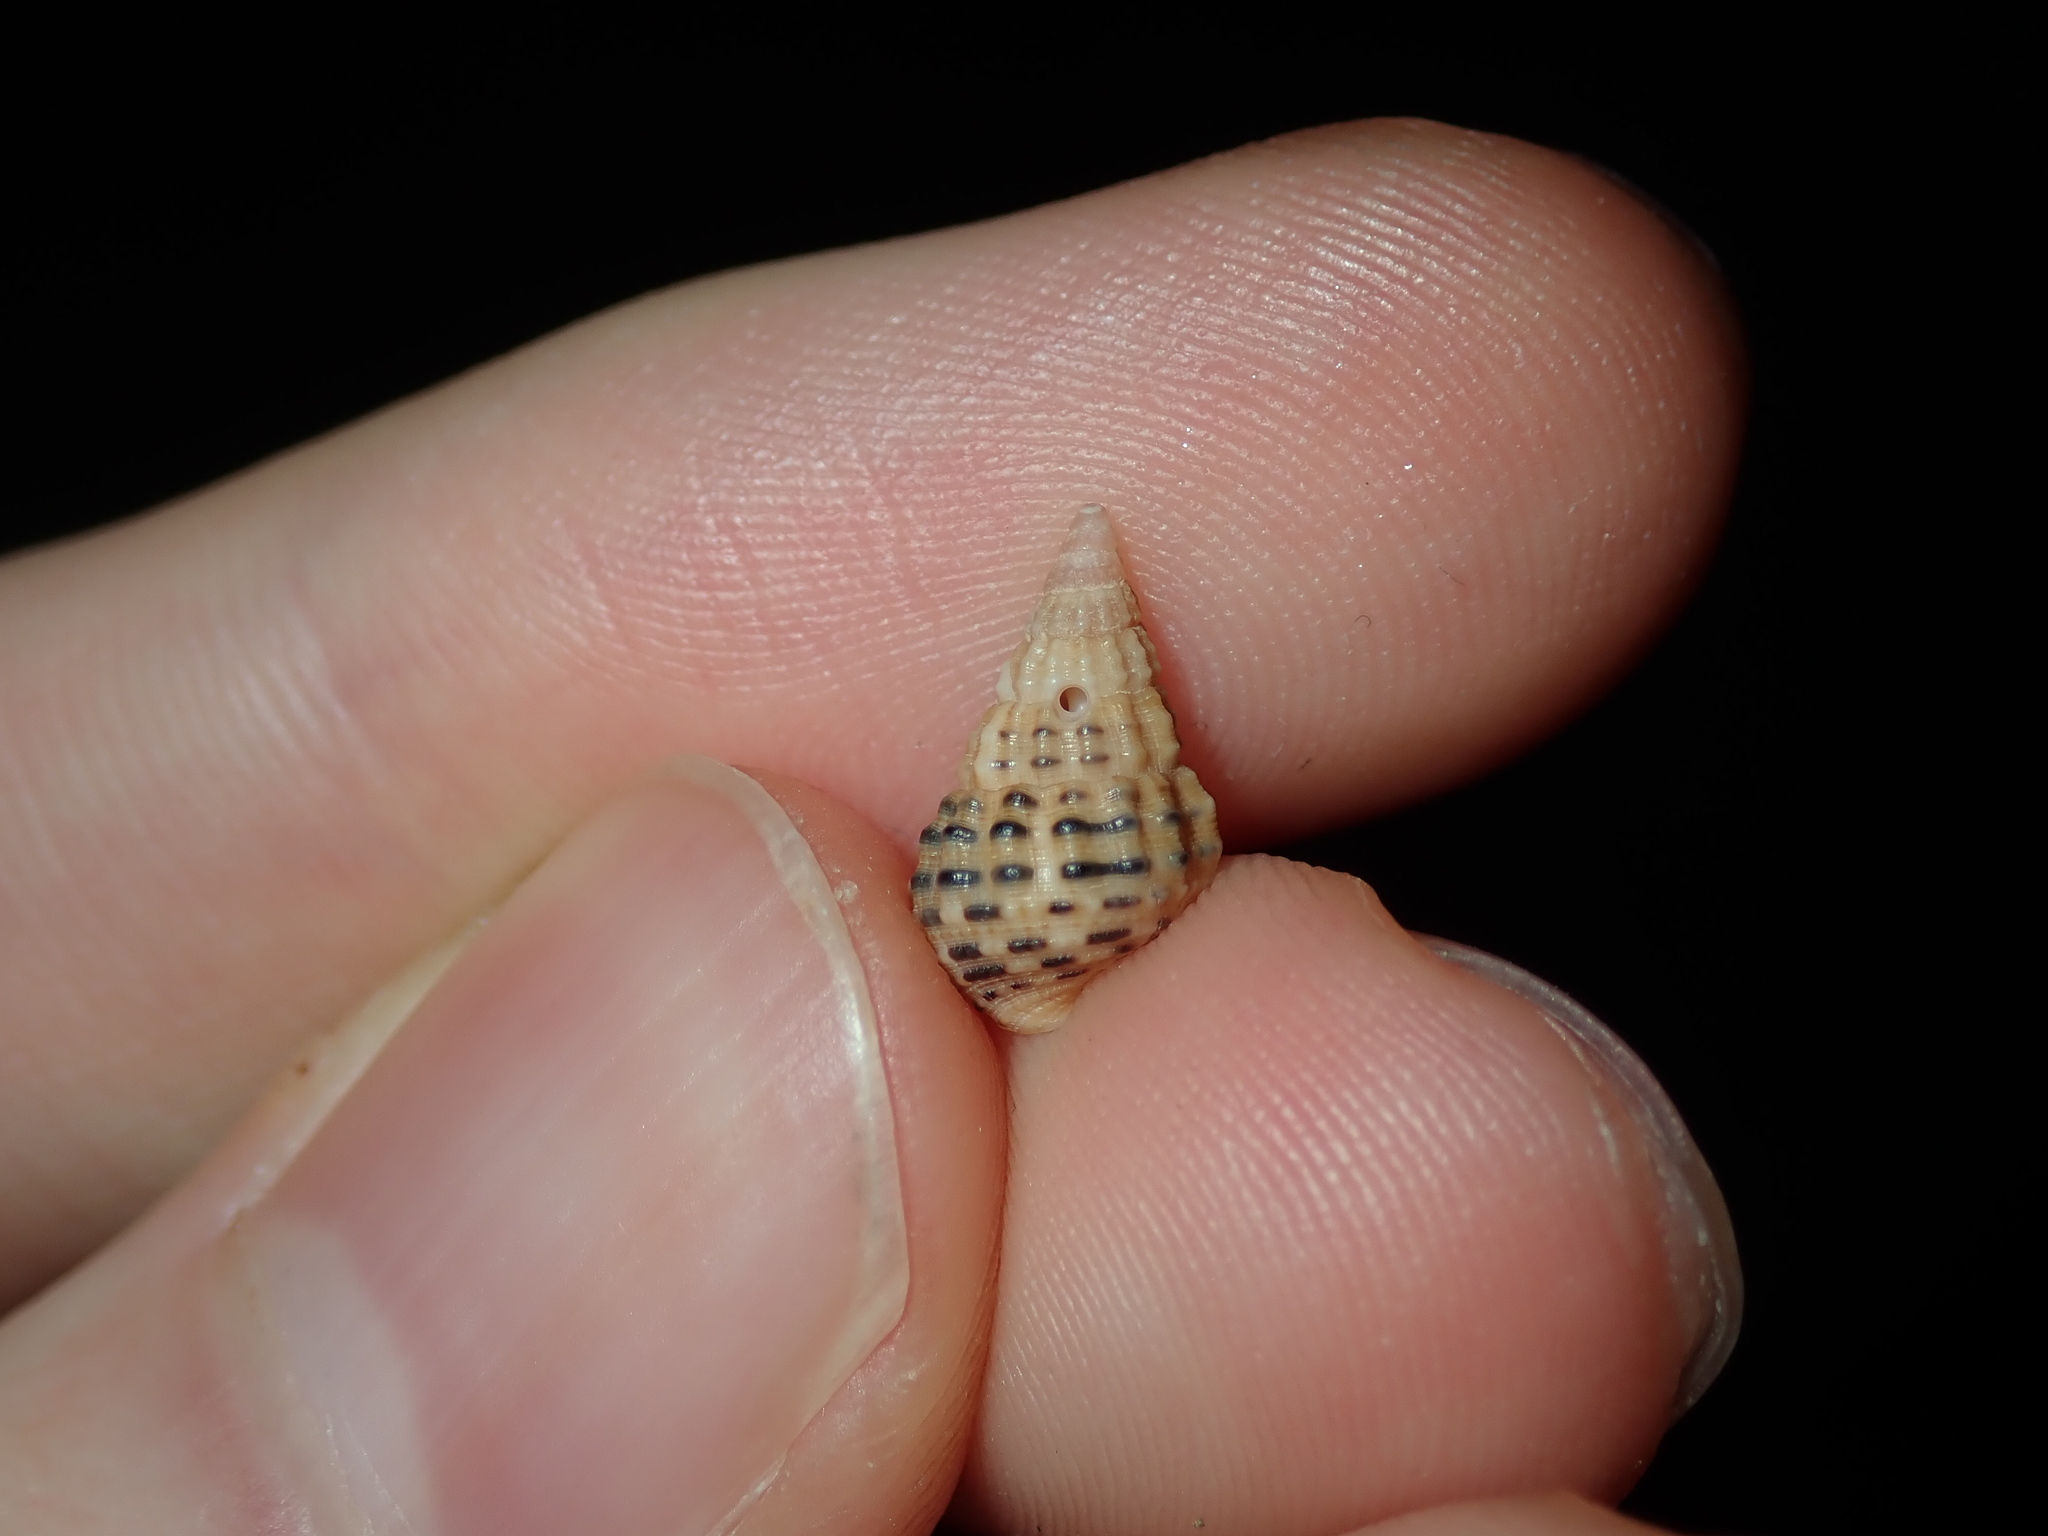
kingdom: Animalia
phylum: Mollusca
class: Gastropoda
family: Cerithiidae
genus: Clypeomorus
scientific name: Clypeomorus petrosa
